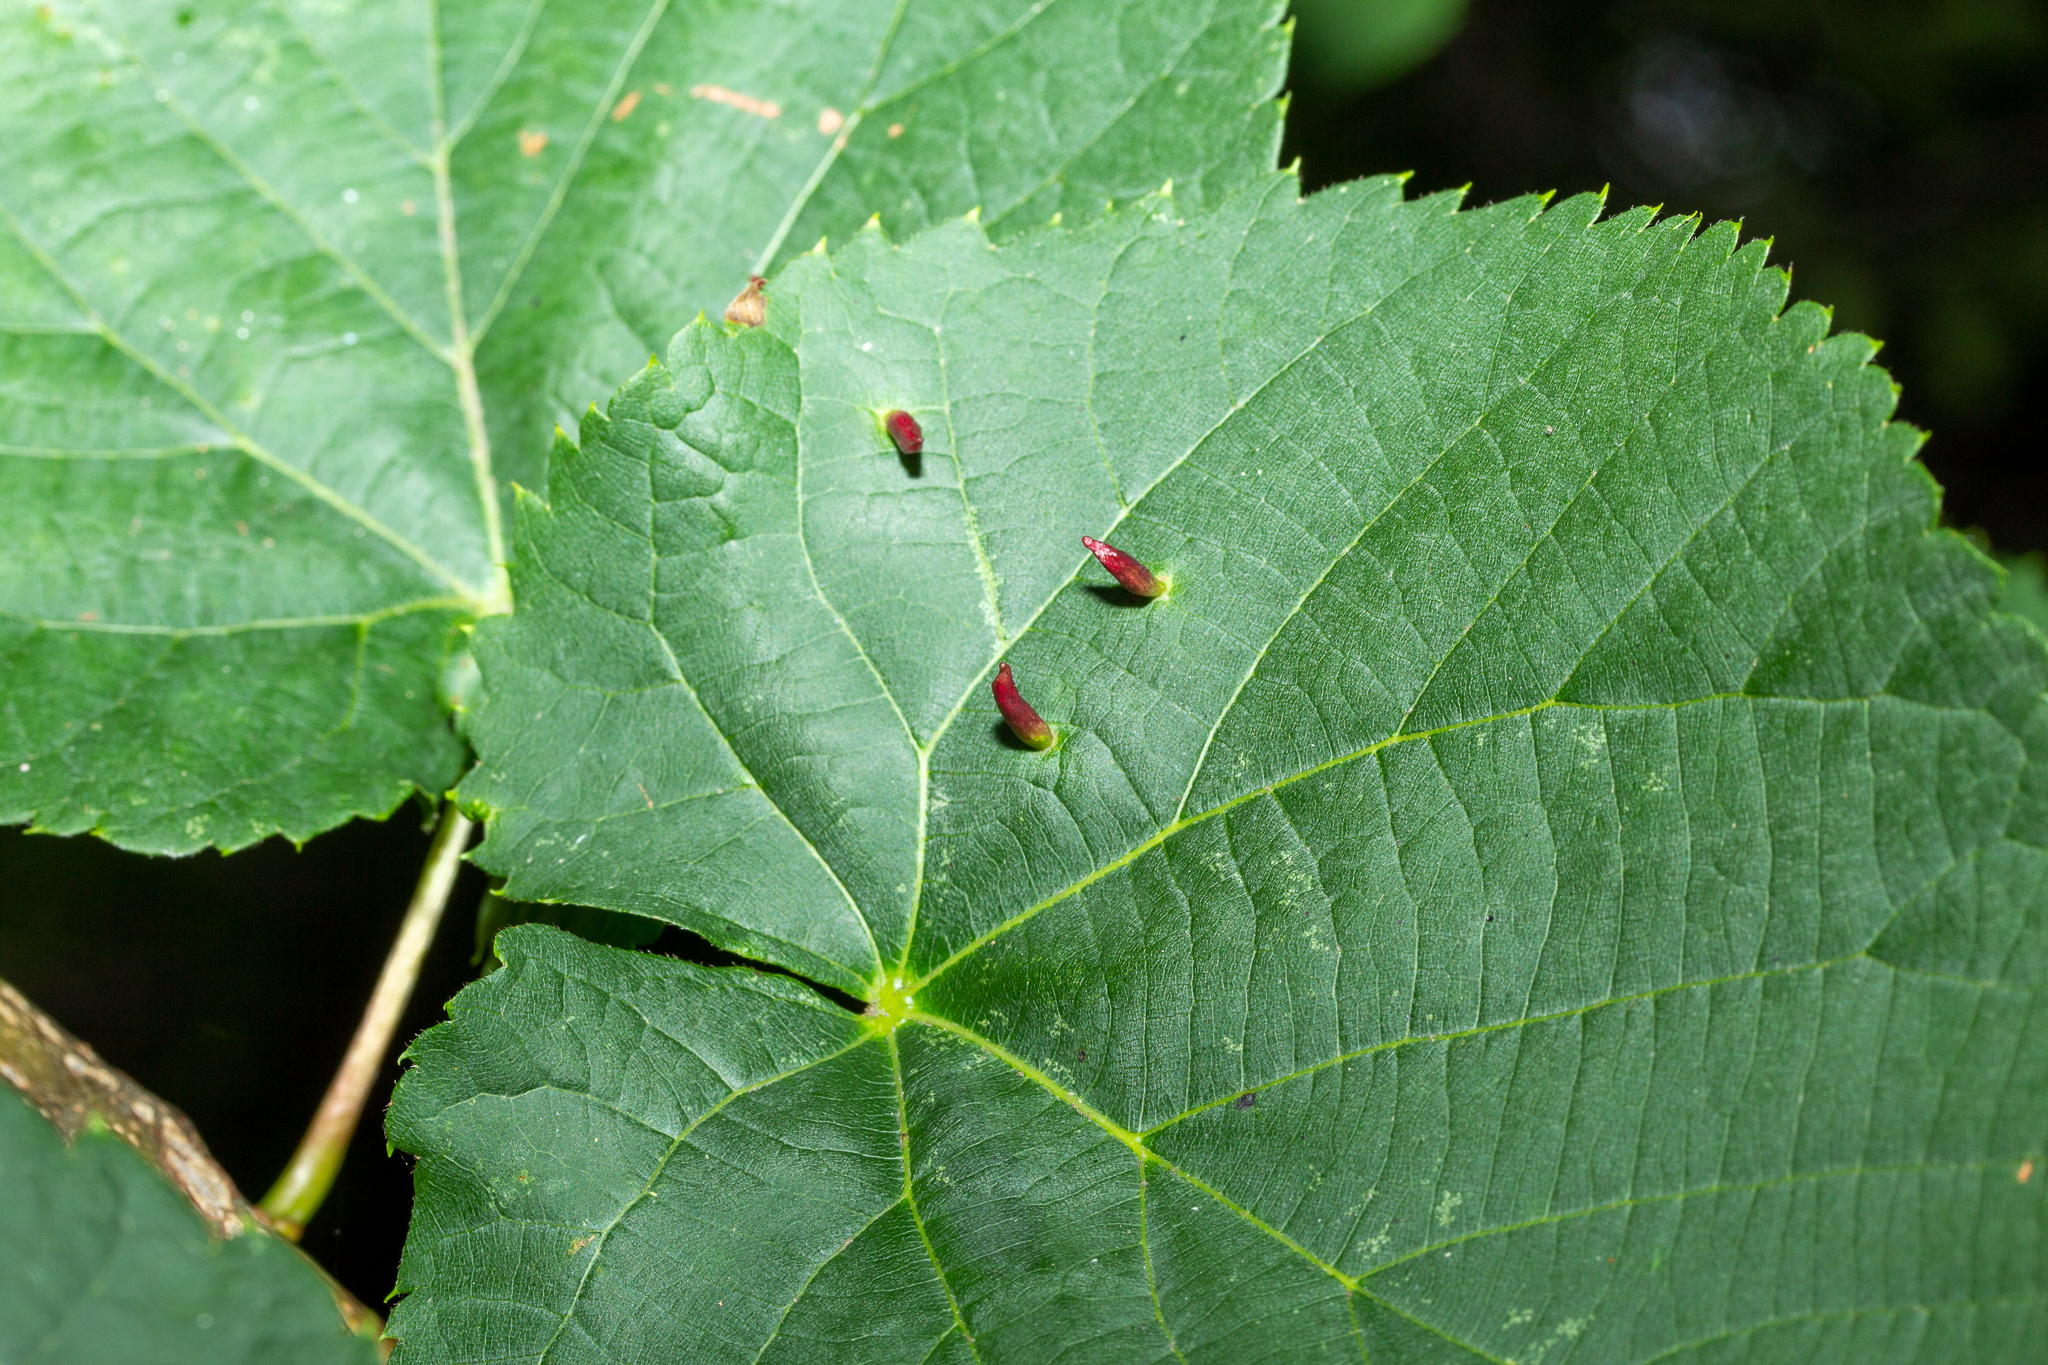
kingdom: Animalia
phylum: Arthropoda
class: Arachnida
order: Trombidiformes
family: Eriophyidae
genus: Eriophyes
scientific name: Eriophyes tiliae
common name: Red nail gall mite
